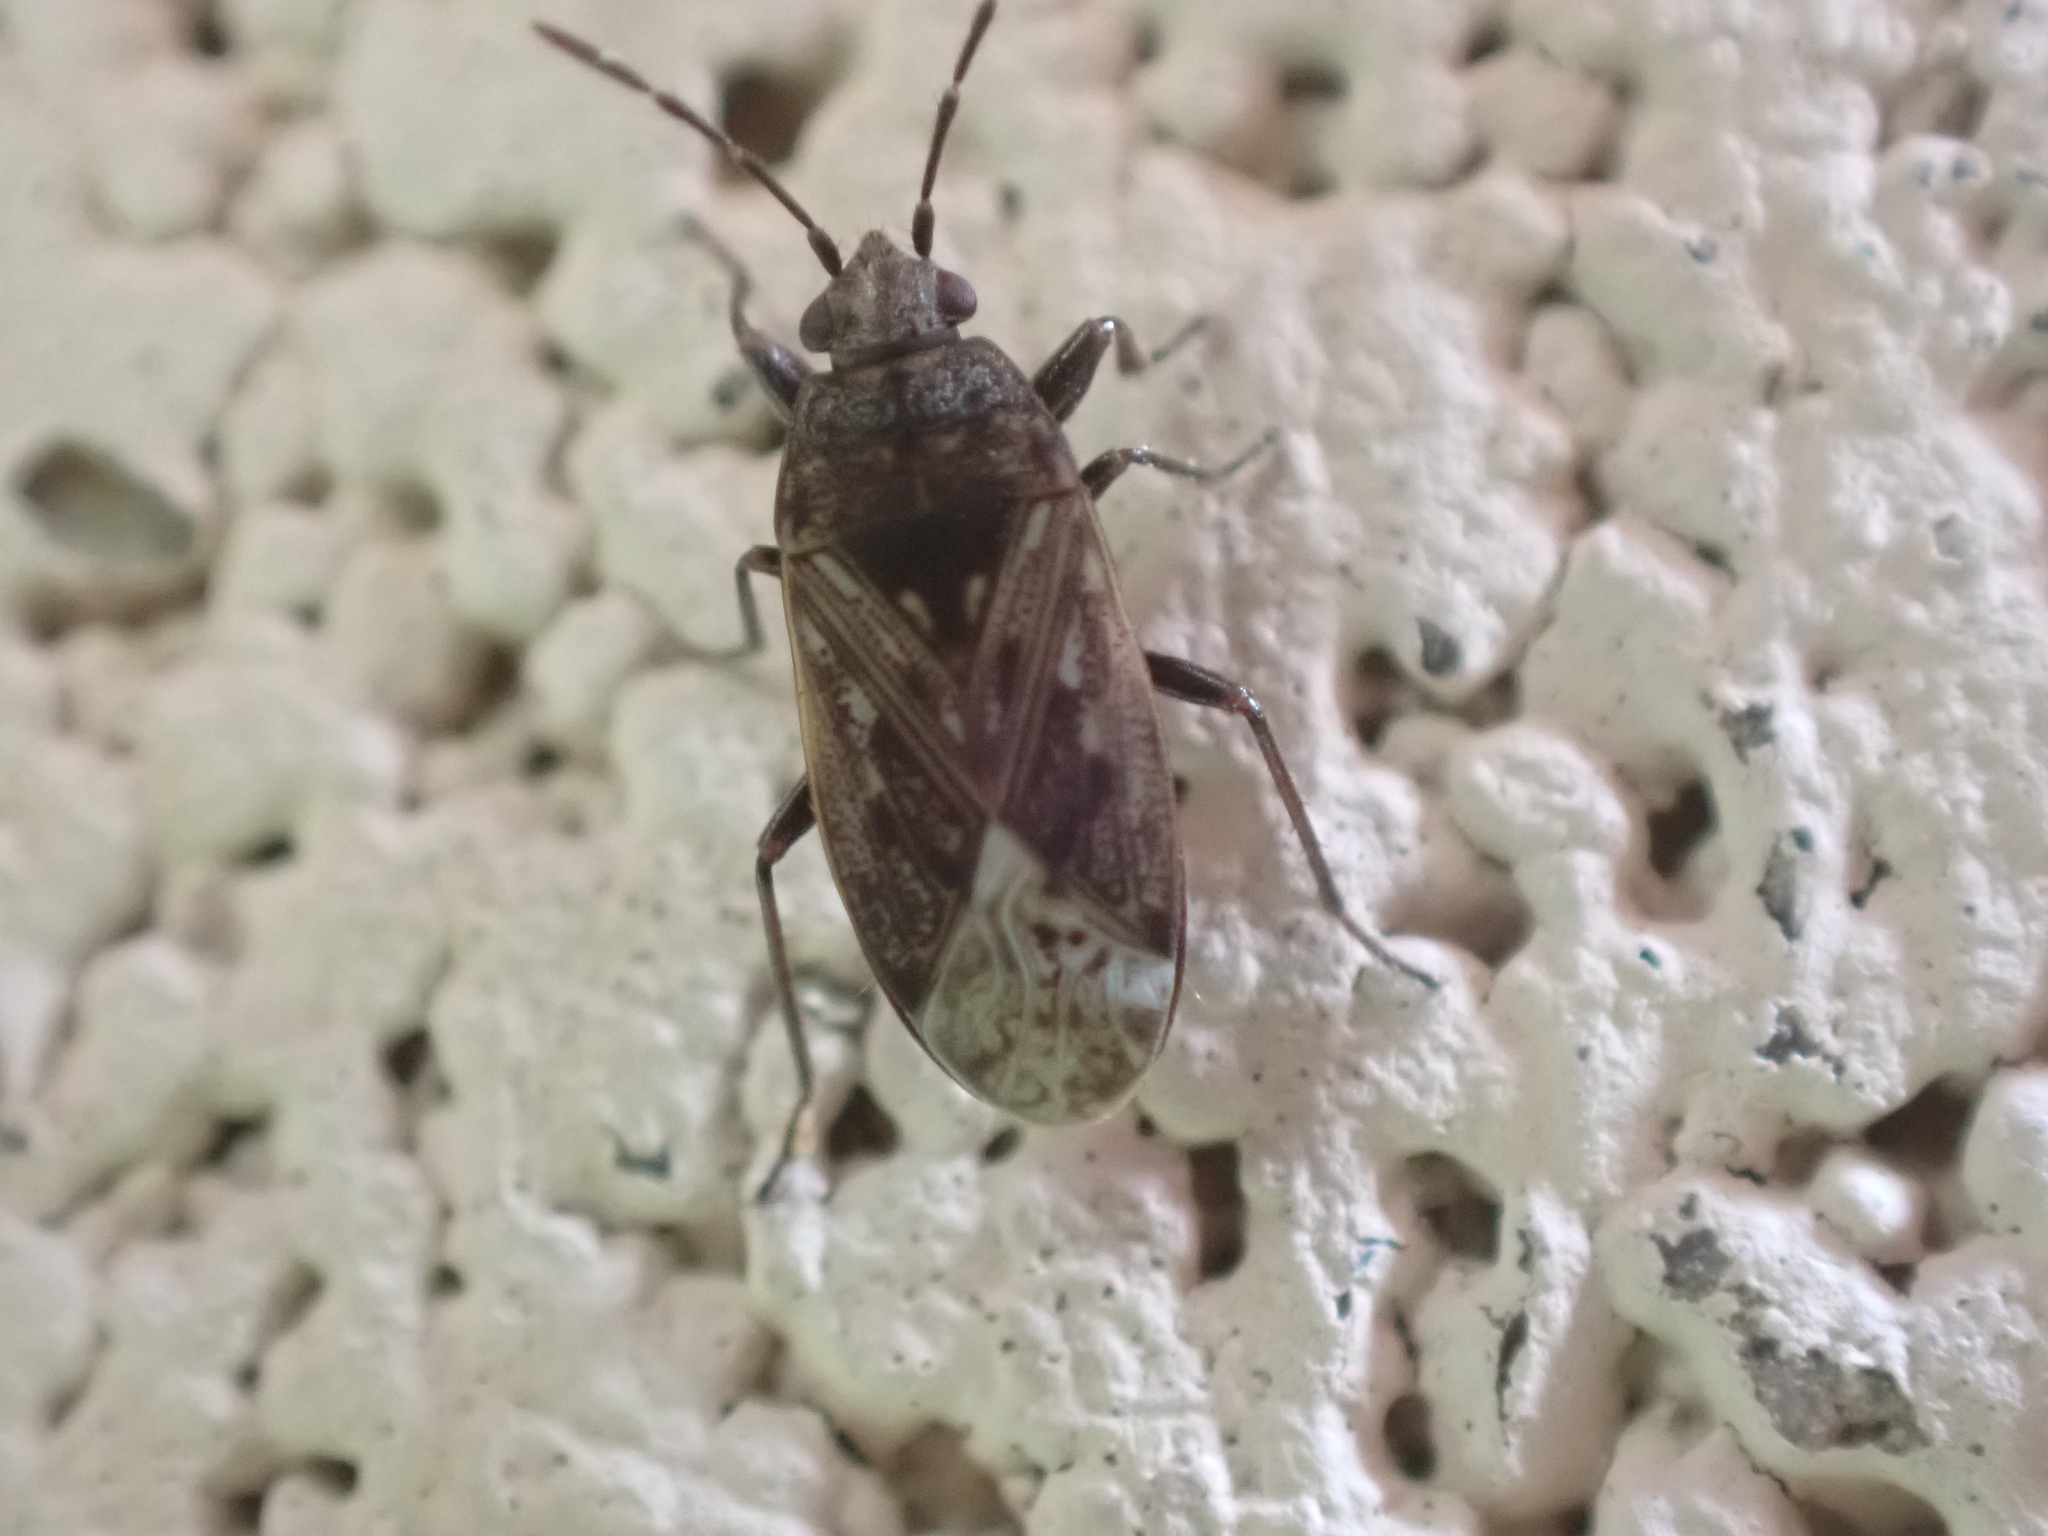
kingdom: Animalia
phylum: Arthropoda
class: Insecta
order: Hemiptera
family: Rhyparochromidae
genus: Peritrechus
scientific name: Peritrechus convivus
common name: Seed bug
